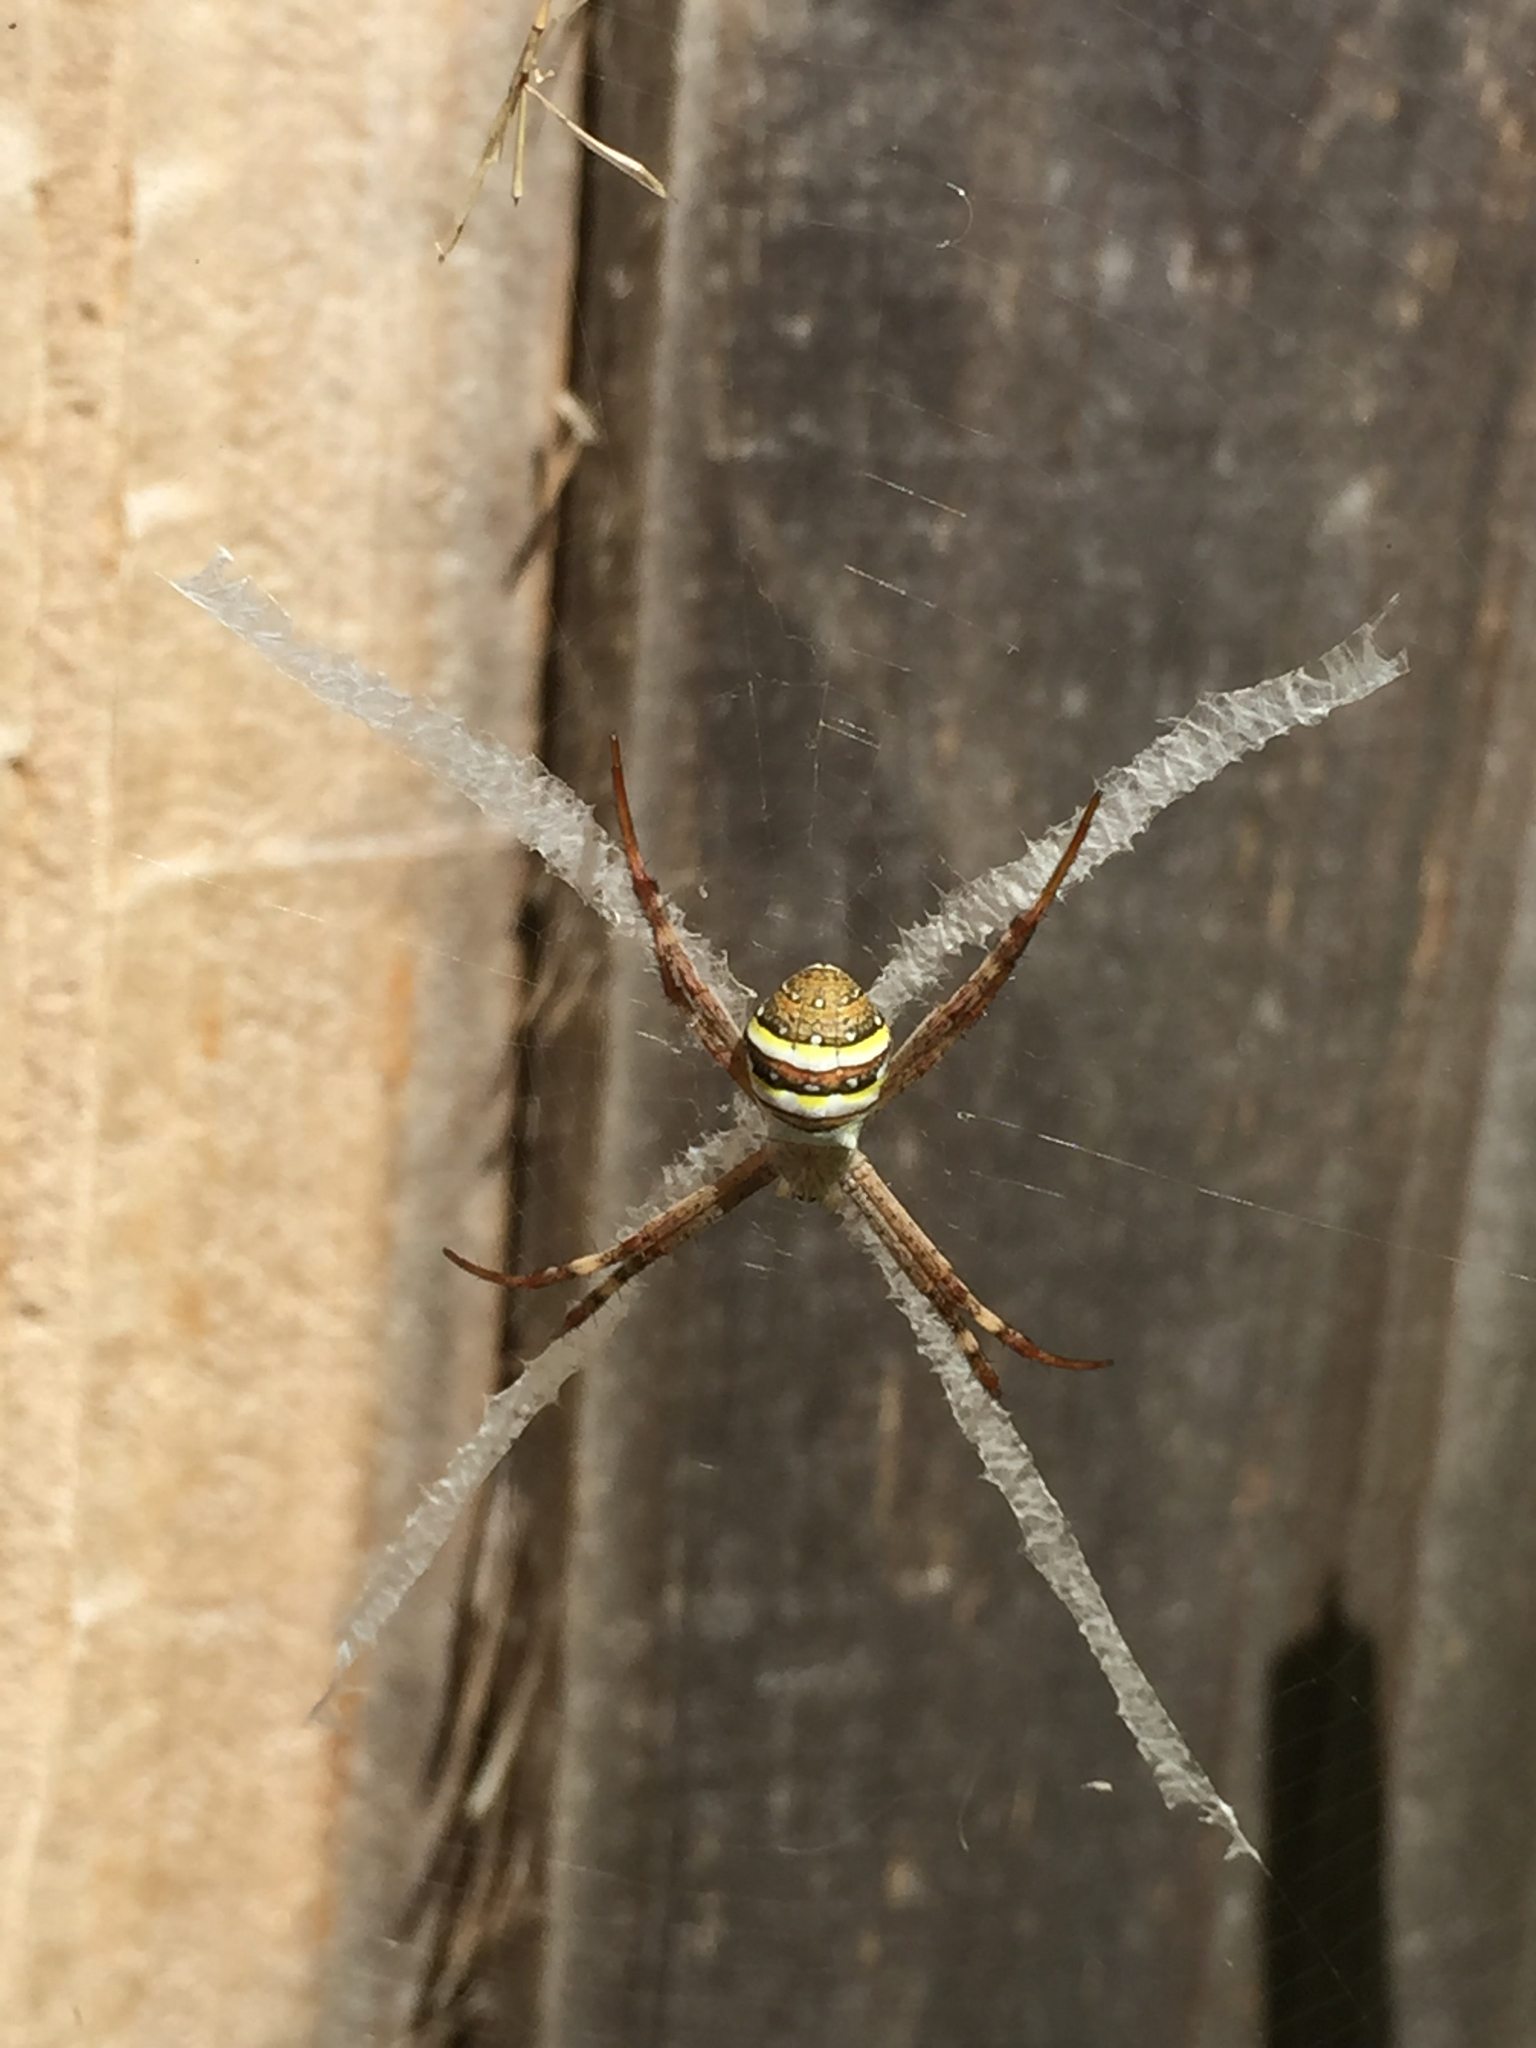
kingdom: Animalia
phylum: Arthropoda
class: Arachnida
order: Araneae
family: Araneidae
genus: Argiope
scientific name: Argiope keyserlingi
